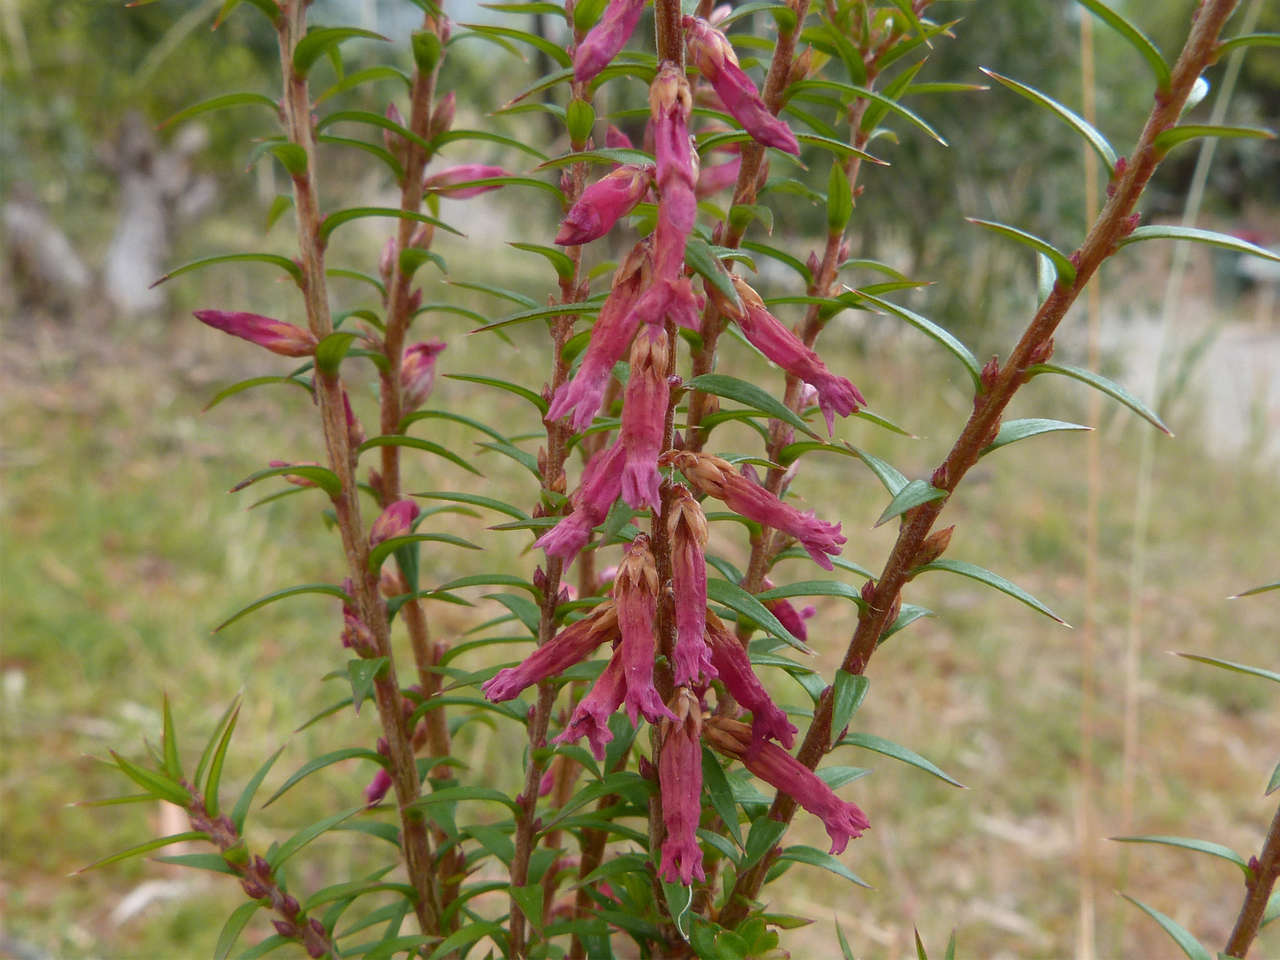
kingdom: Plantae
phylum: Tracheophyta
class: Magnoliopsida
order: Ericales
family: Ericaceae
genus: Epacris
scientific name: Epacris impressa
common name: Common-heath
